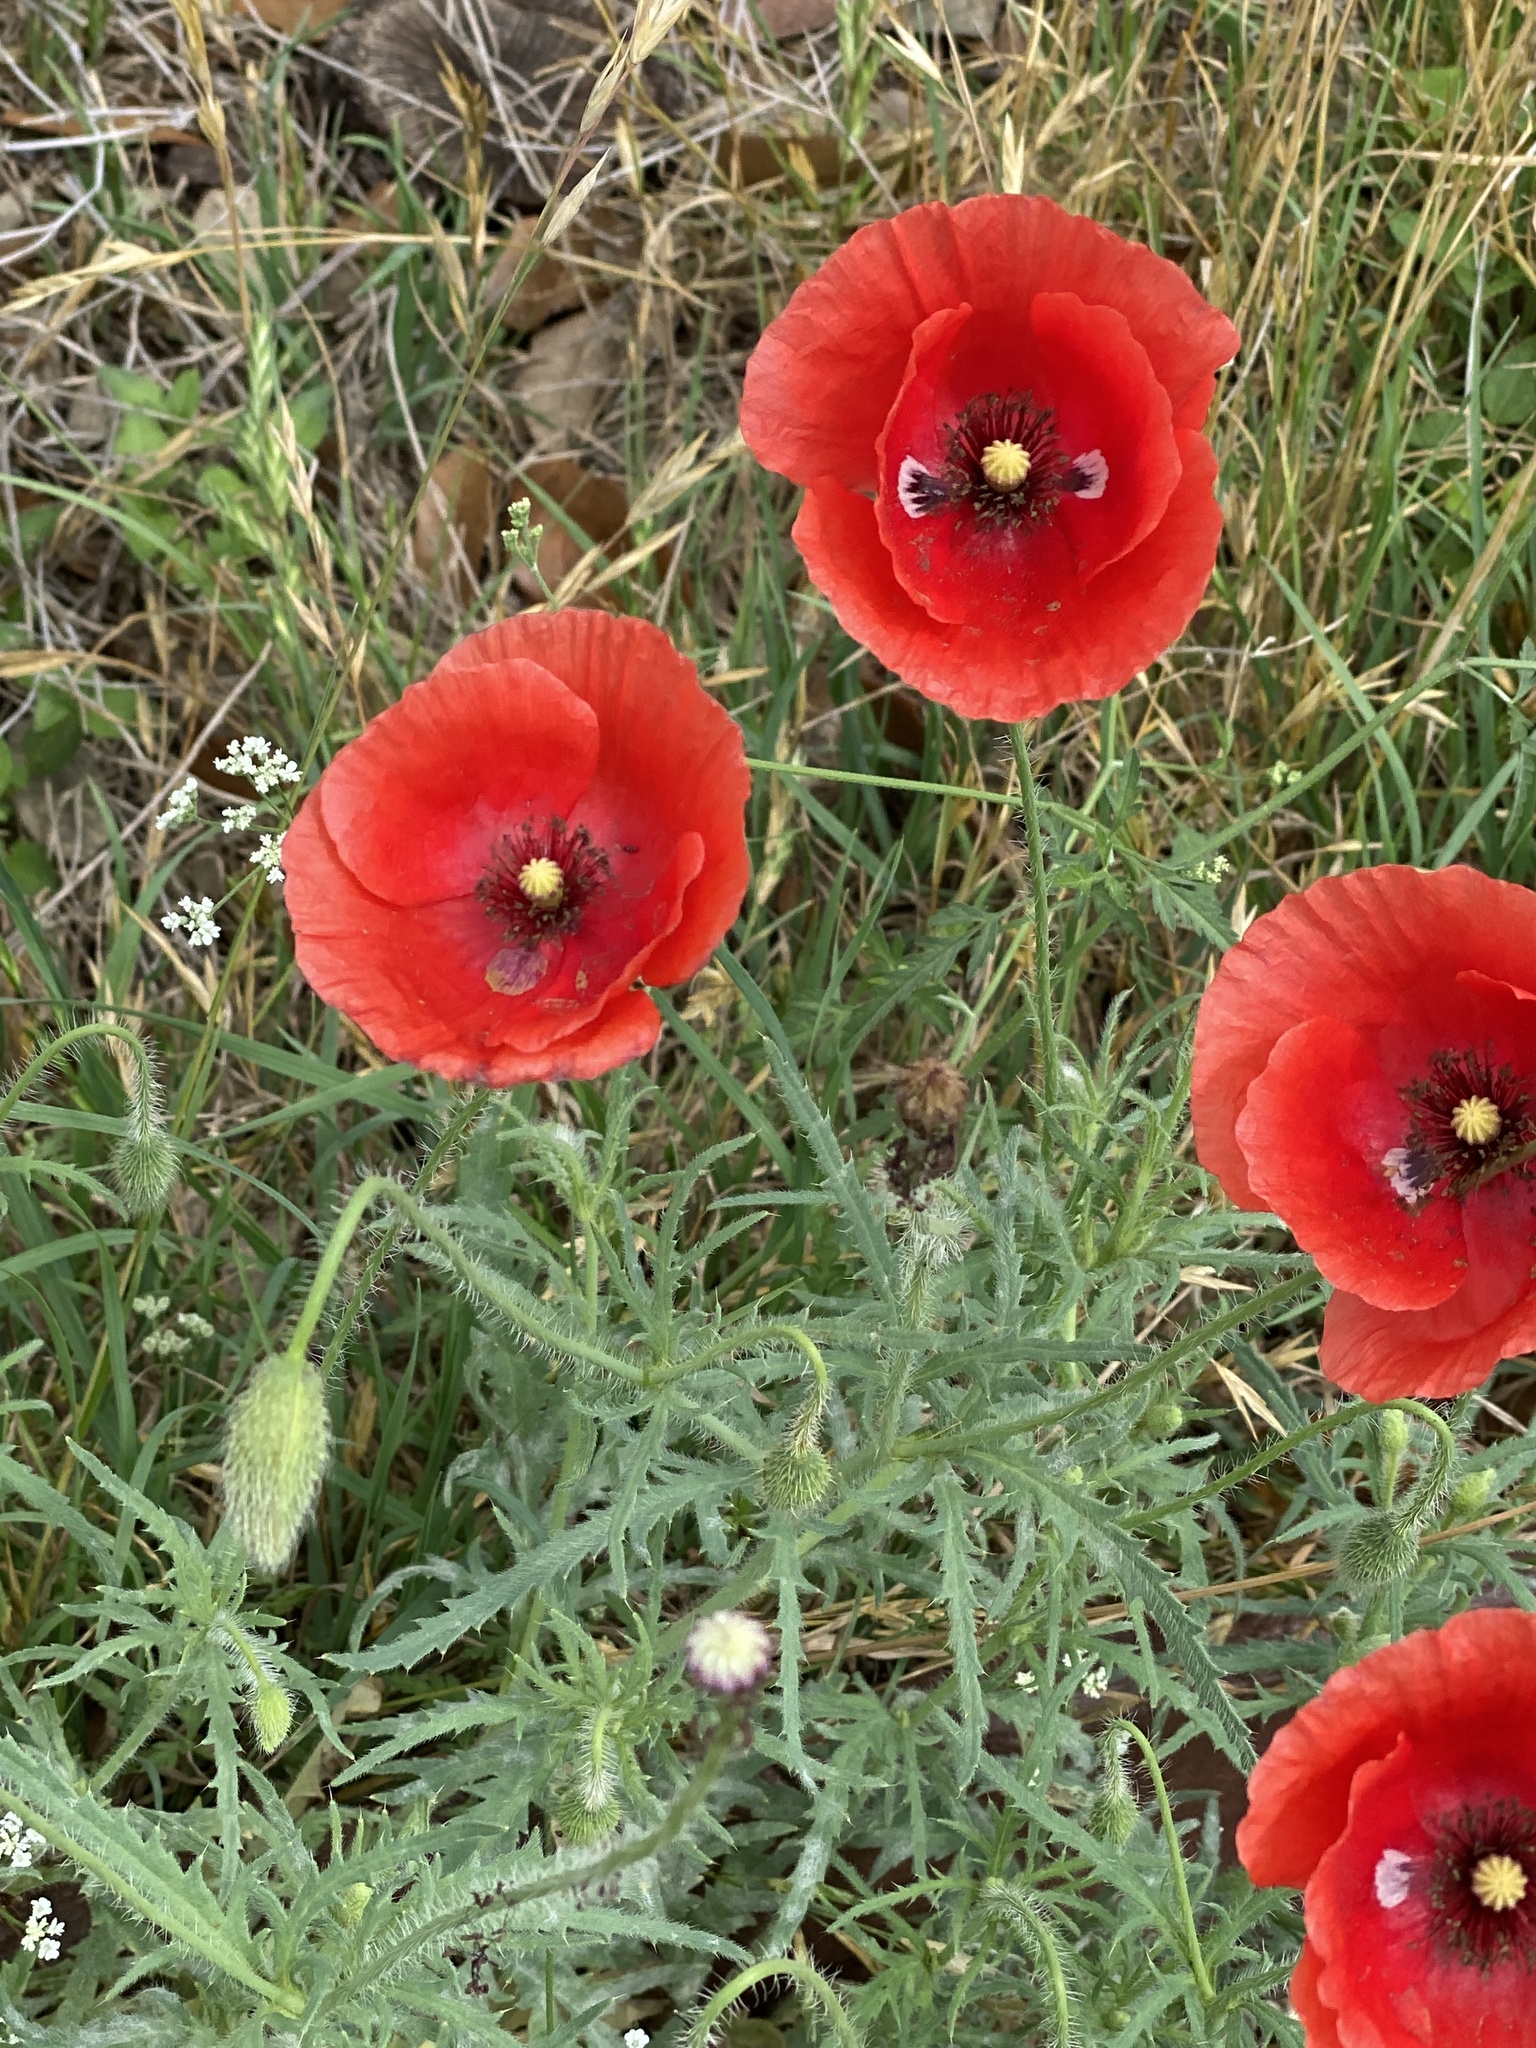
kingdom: Plantae
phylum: Tracheophyta
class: Magnoliopsida
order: Ranunculales
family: Papaveraceae
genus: Papaver
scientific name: Papaver rhoeas
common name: Corn poppy
